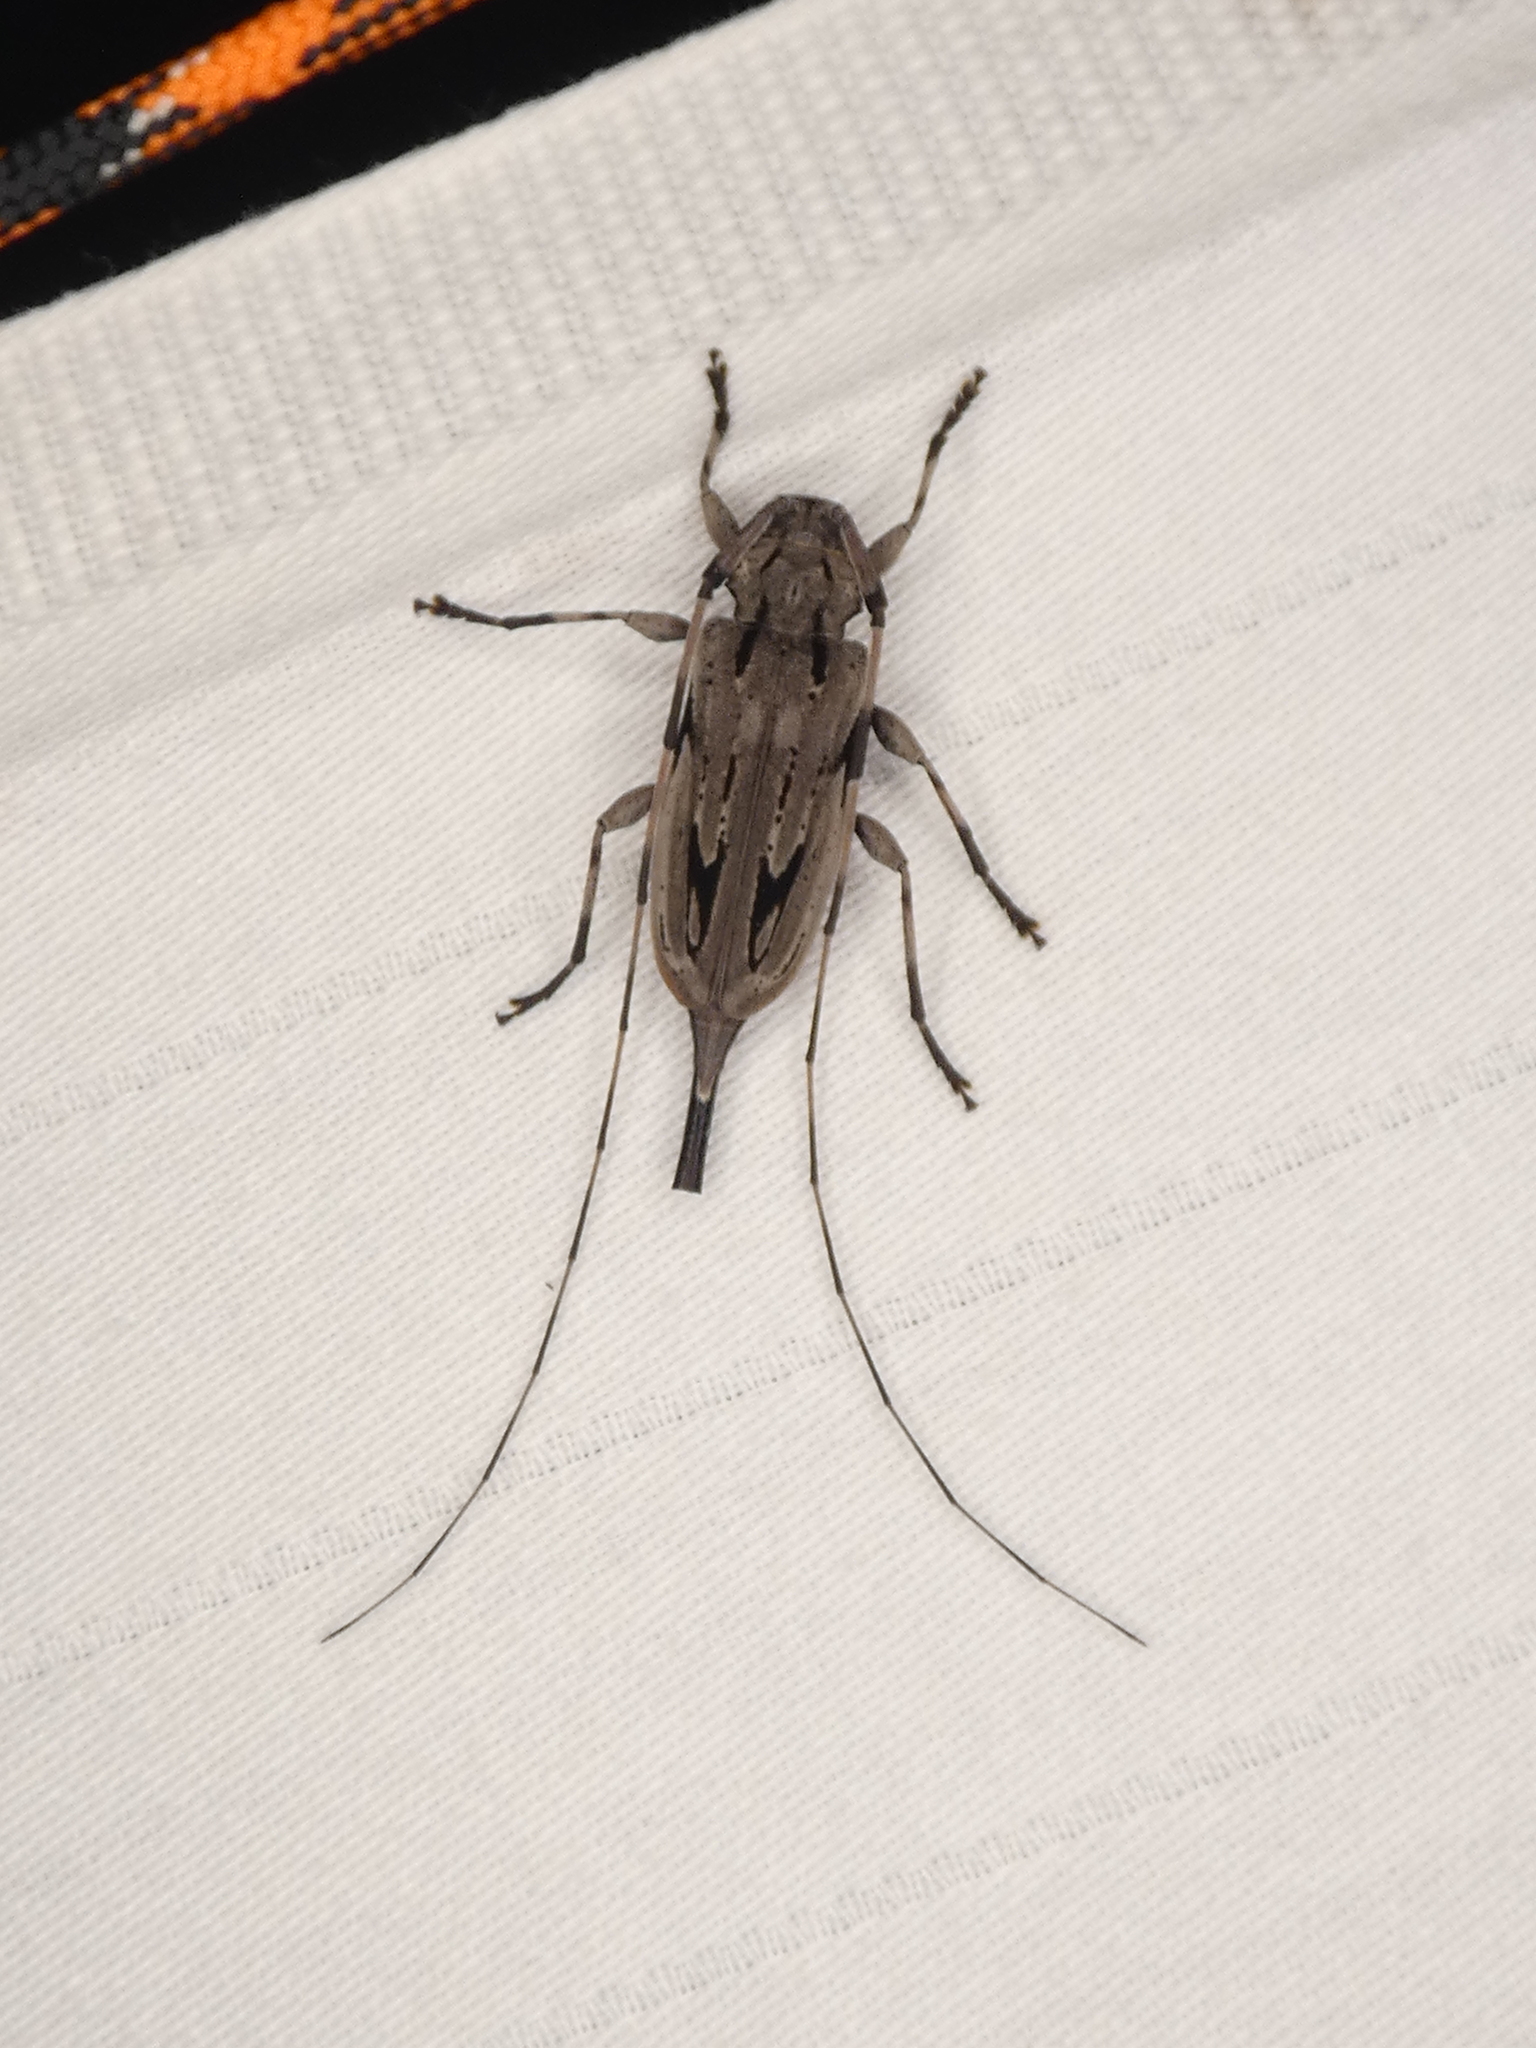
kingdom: Animalia
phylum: Arthropoda
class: Insecta
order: Coleoptera
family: Cerambycidae
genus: Acanthocinus
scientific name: Acanthocinus nodosus
